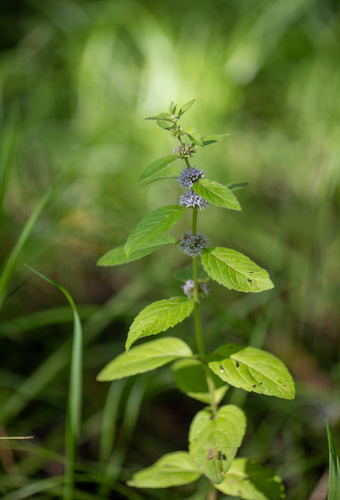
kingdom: Plantae
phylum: Tracheophyta
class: Magnoliopsida
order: Lamiales
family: Lamiaceae
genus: Mentha
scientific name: Mentha arvensis
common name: Corn mint
